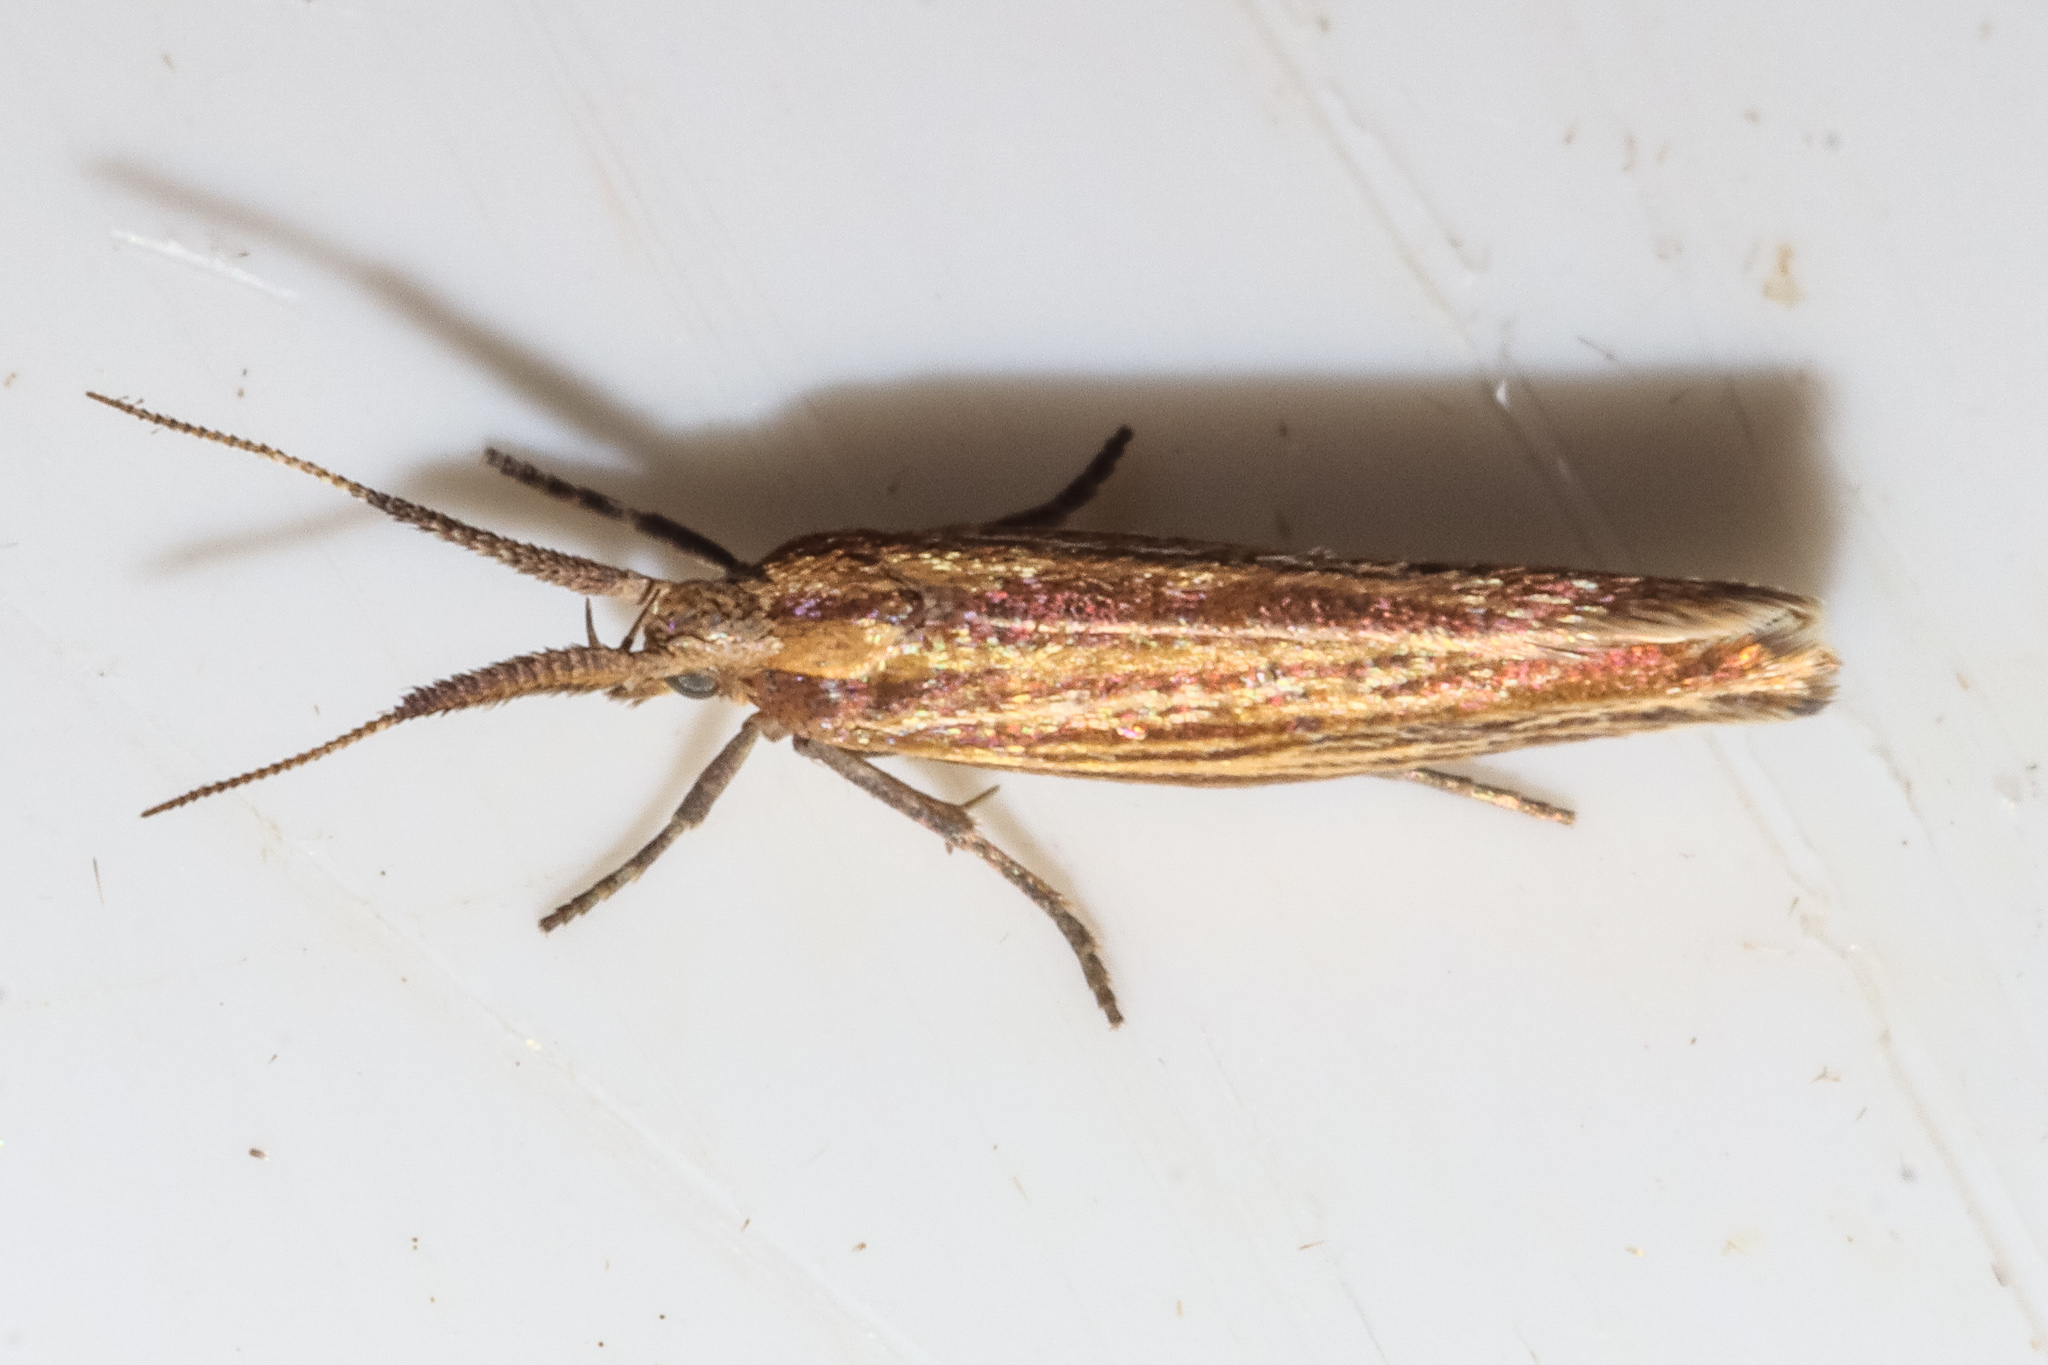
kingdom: Animalia
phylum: Arthropoda
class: Insecta
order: Lepidoptera
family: Plutellidae
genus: Phylacodes
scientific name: Phylacodes cauta
